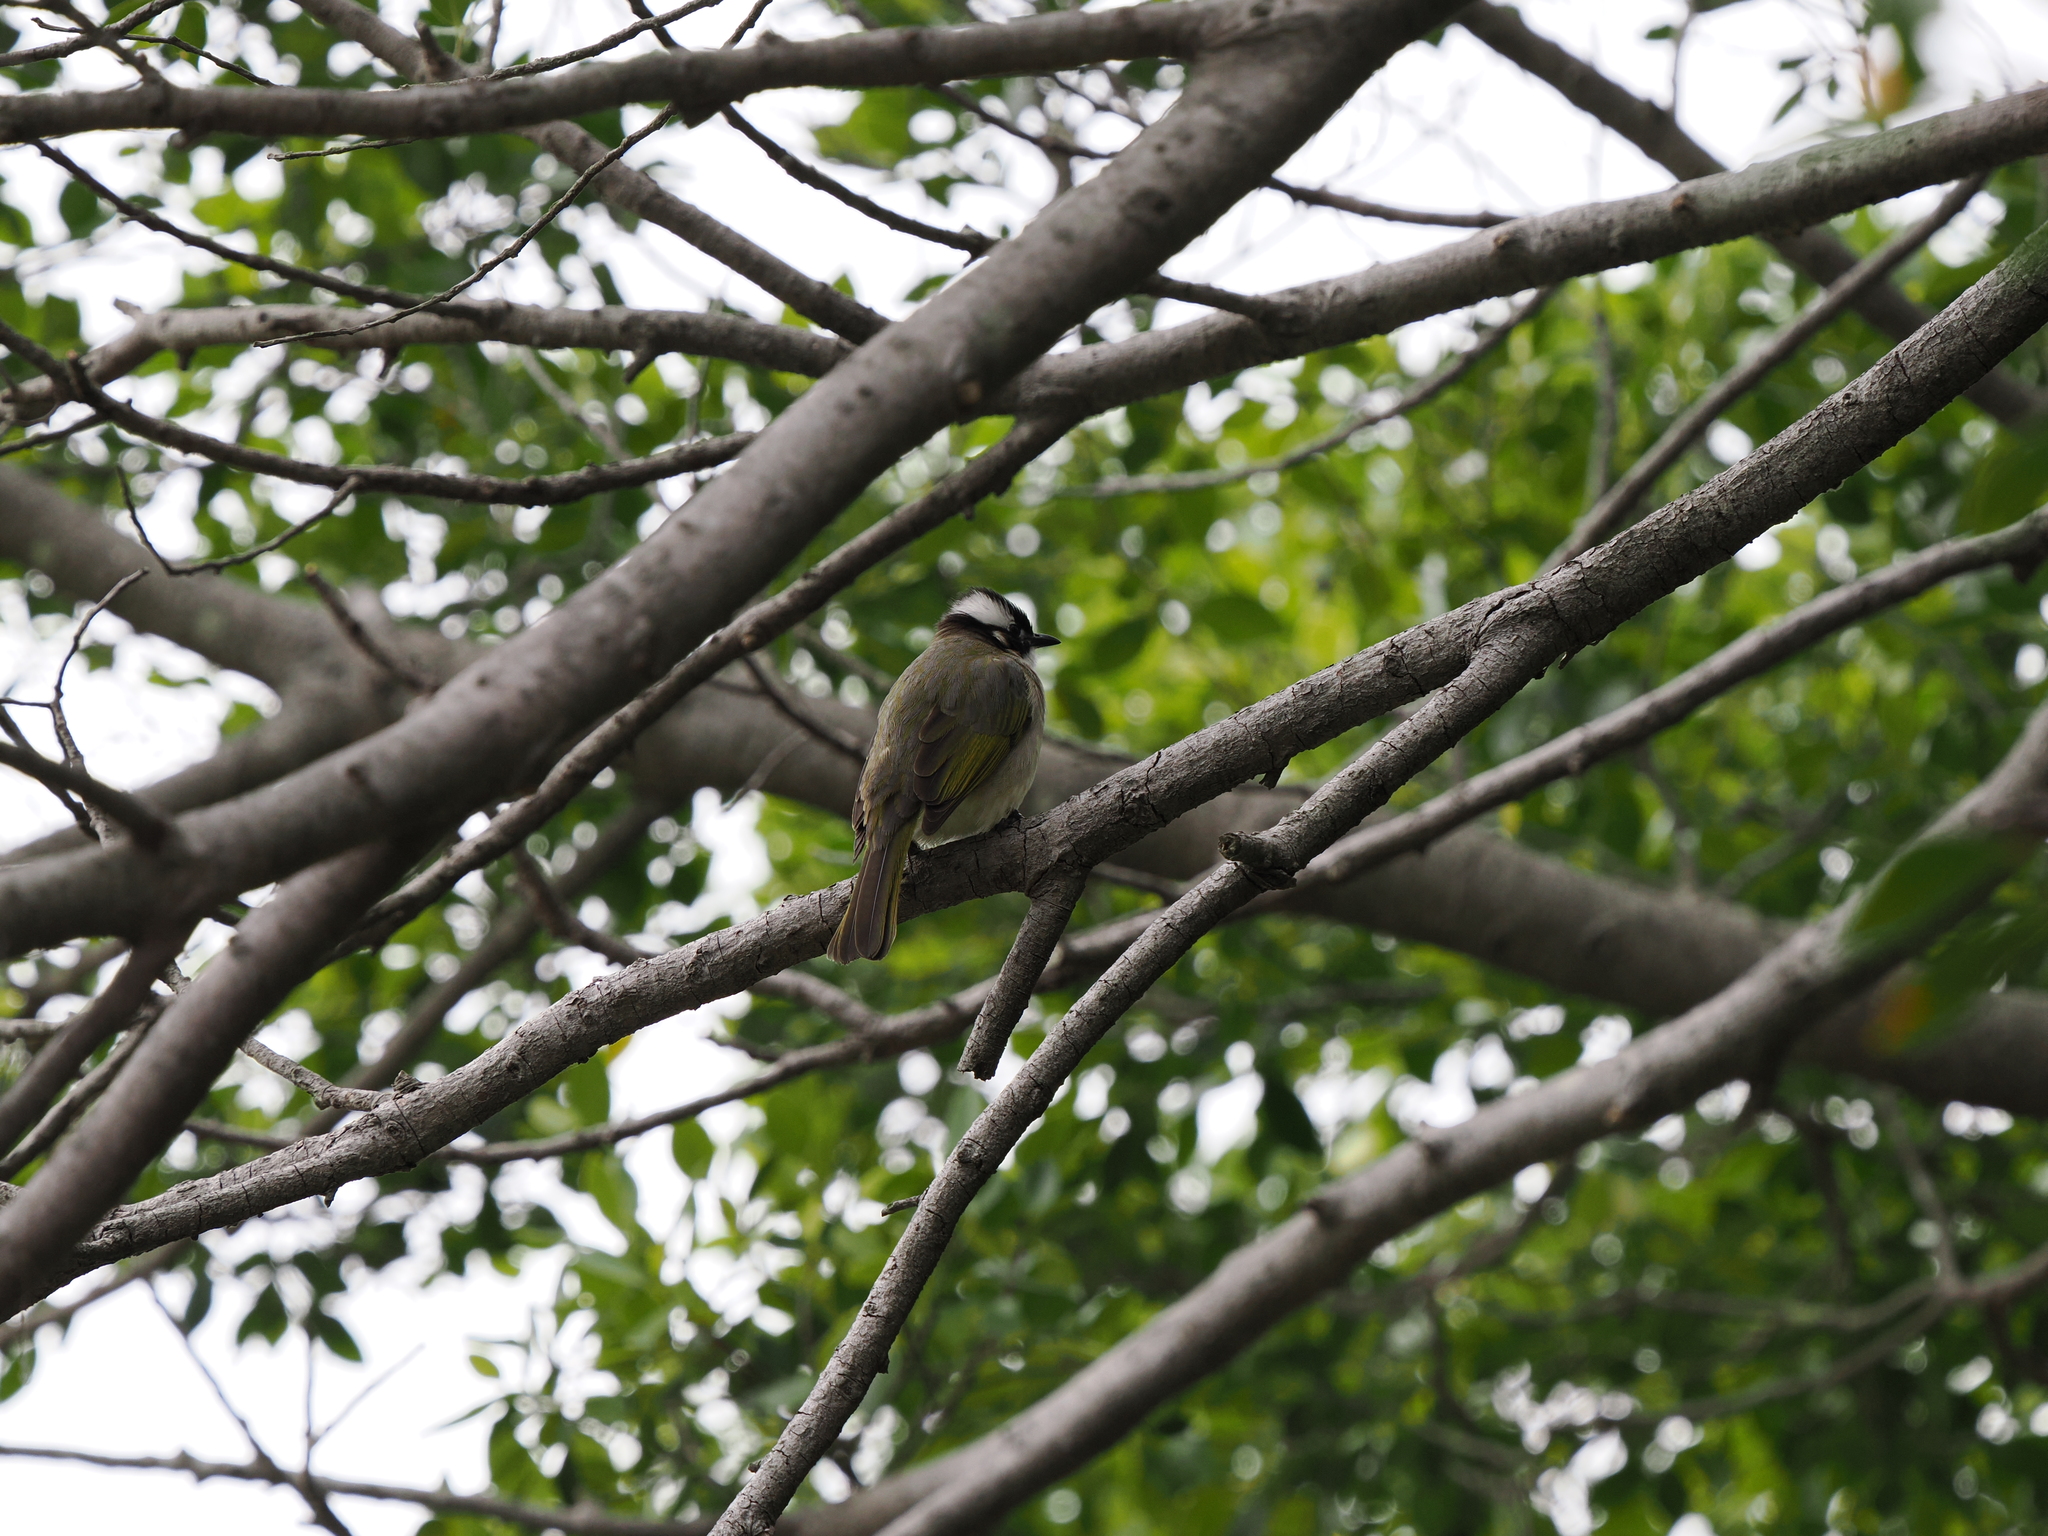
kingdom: Animalia
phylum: Chordata
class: Aves
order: Passeriformes
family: Pycnonotidae
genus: Pycnonotus
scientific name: Pycnonotus sinensis
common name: Light-vented bulbul
